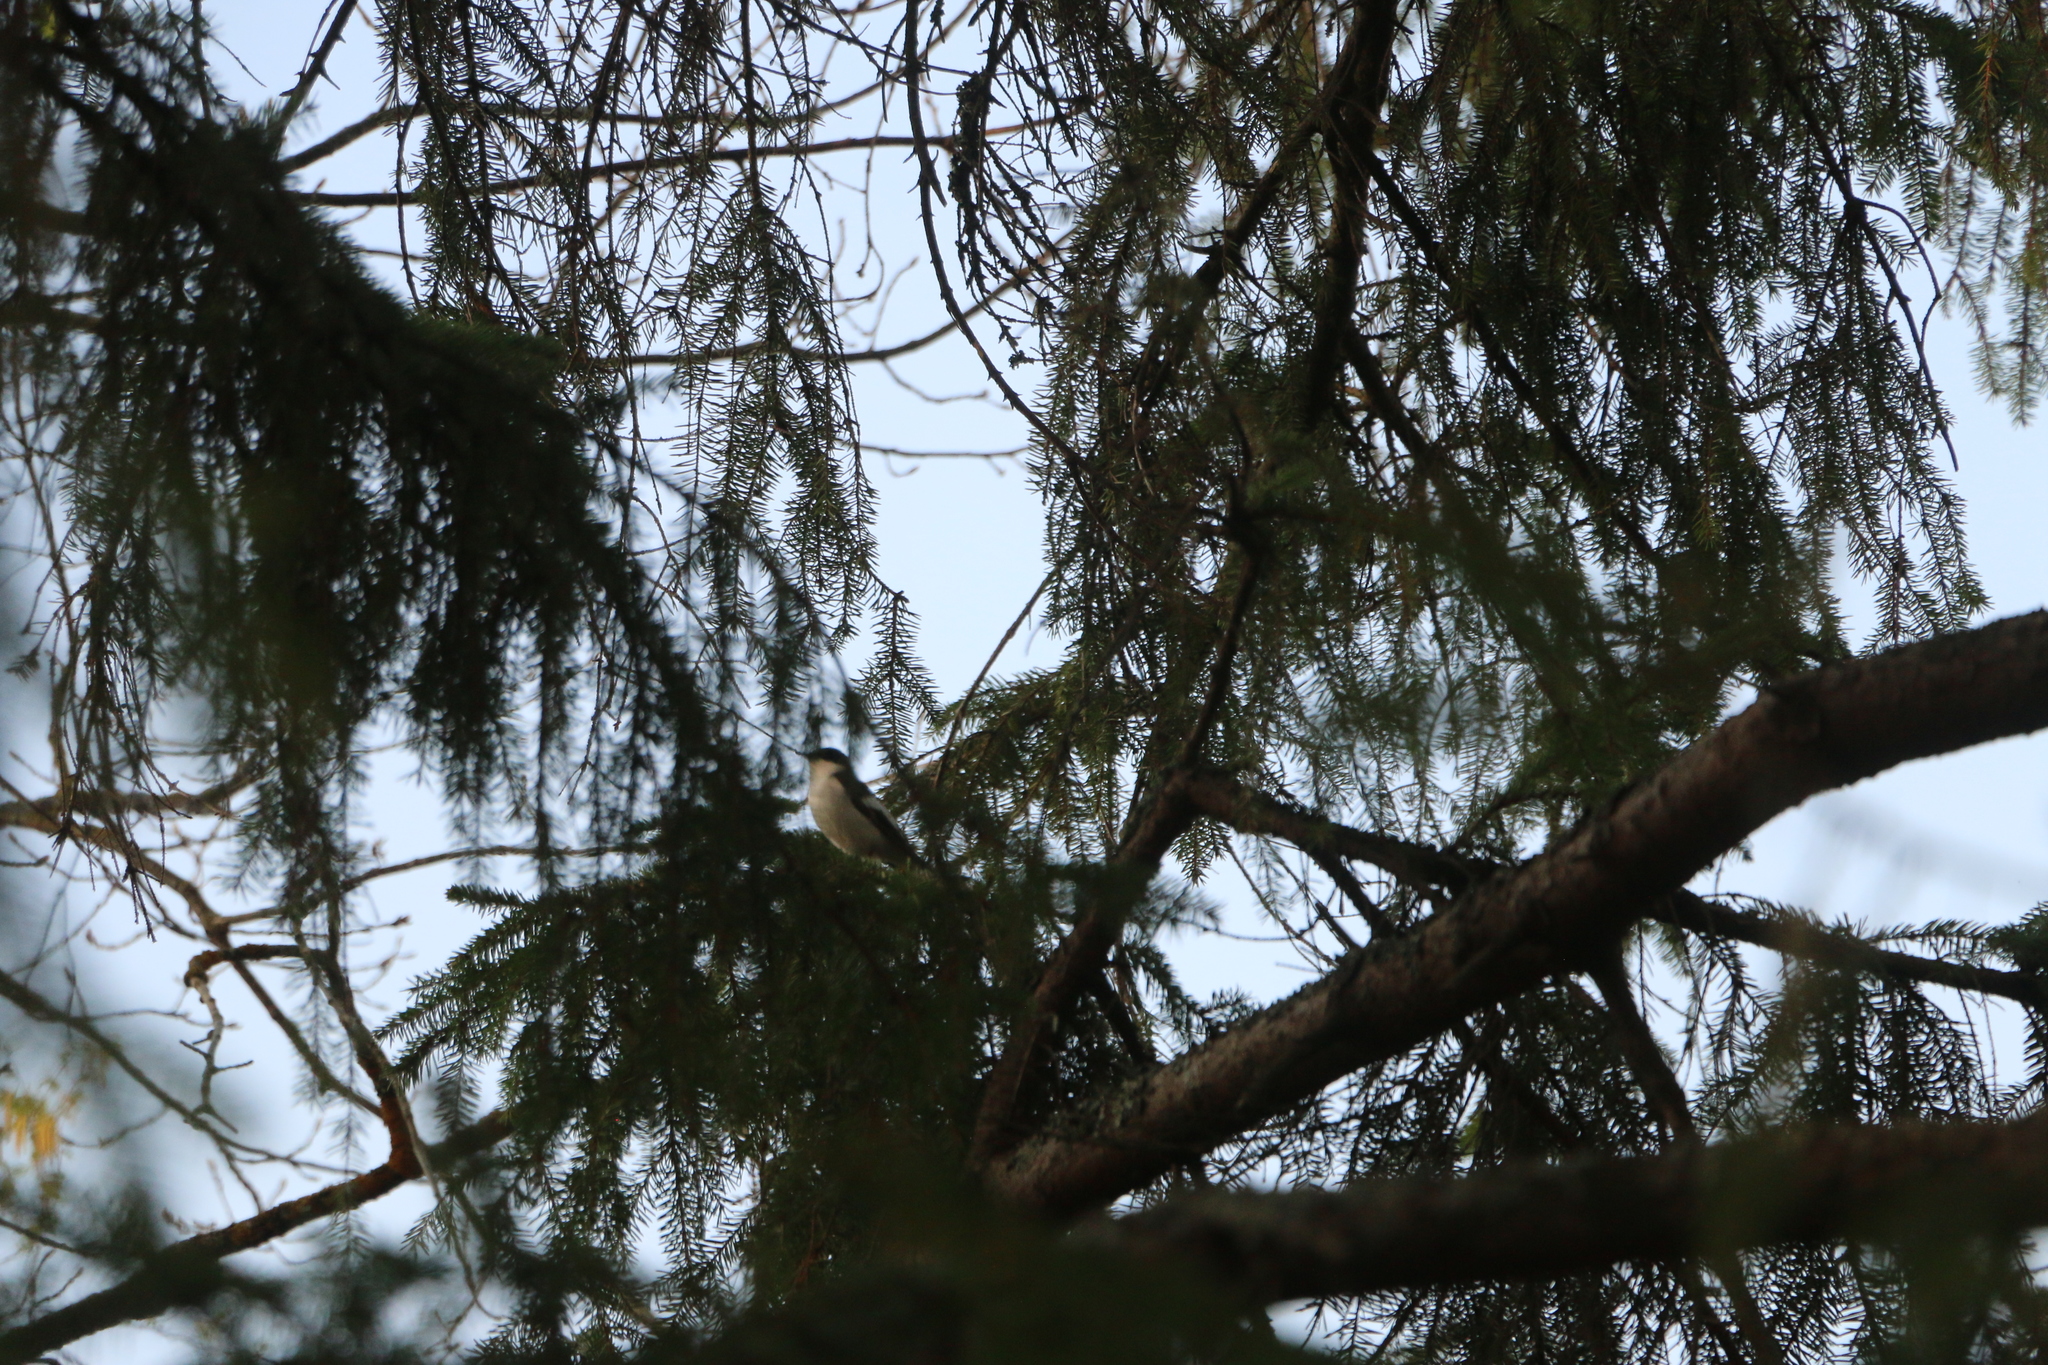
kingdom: Animalia
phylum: Chordata
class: Aves
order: Passeriformes
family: Muscicapidae
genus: Ficedula
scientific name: Ficedula hypoleuca
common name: European pied flycatcher
